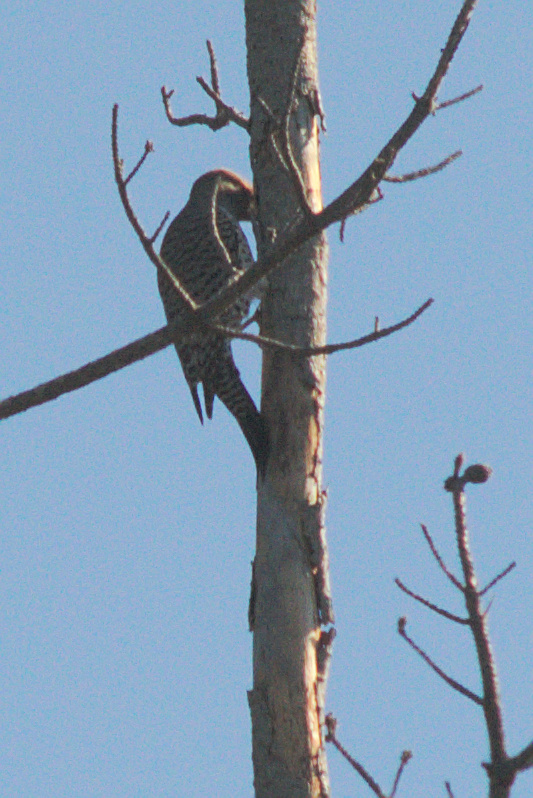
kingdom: Animalia
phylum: Chordata
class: Aves
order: Piciformes
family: Picidae
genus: Colaptes
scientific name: Colaptes auratus
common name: Northern flicker
